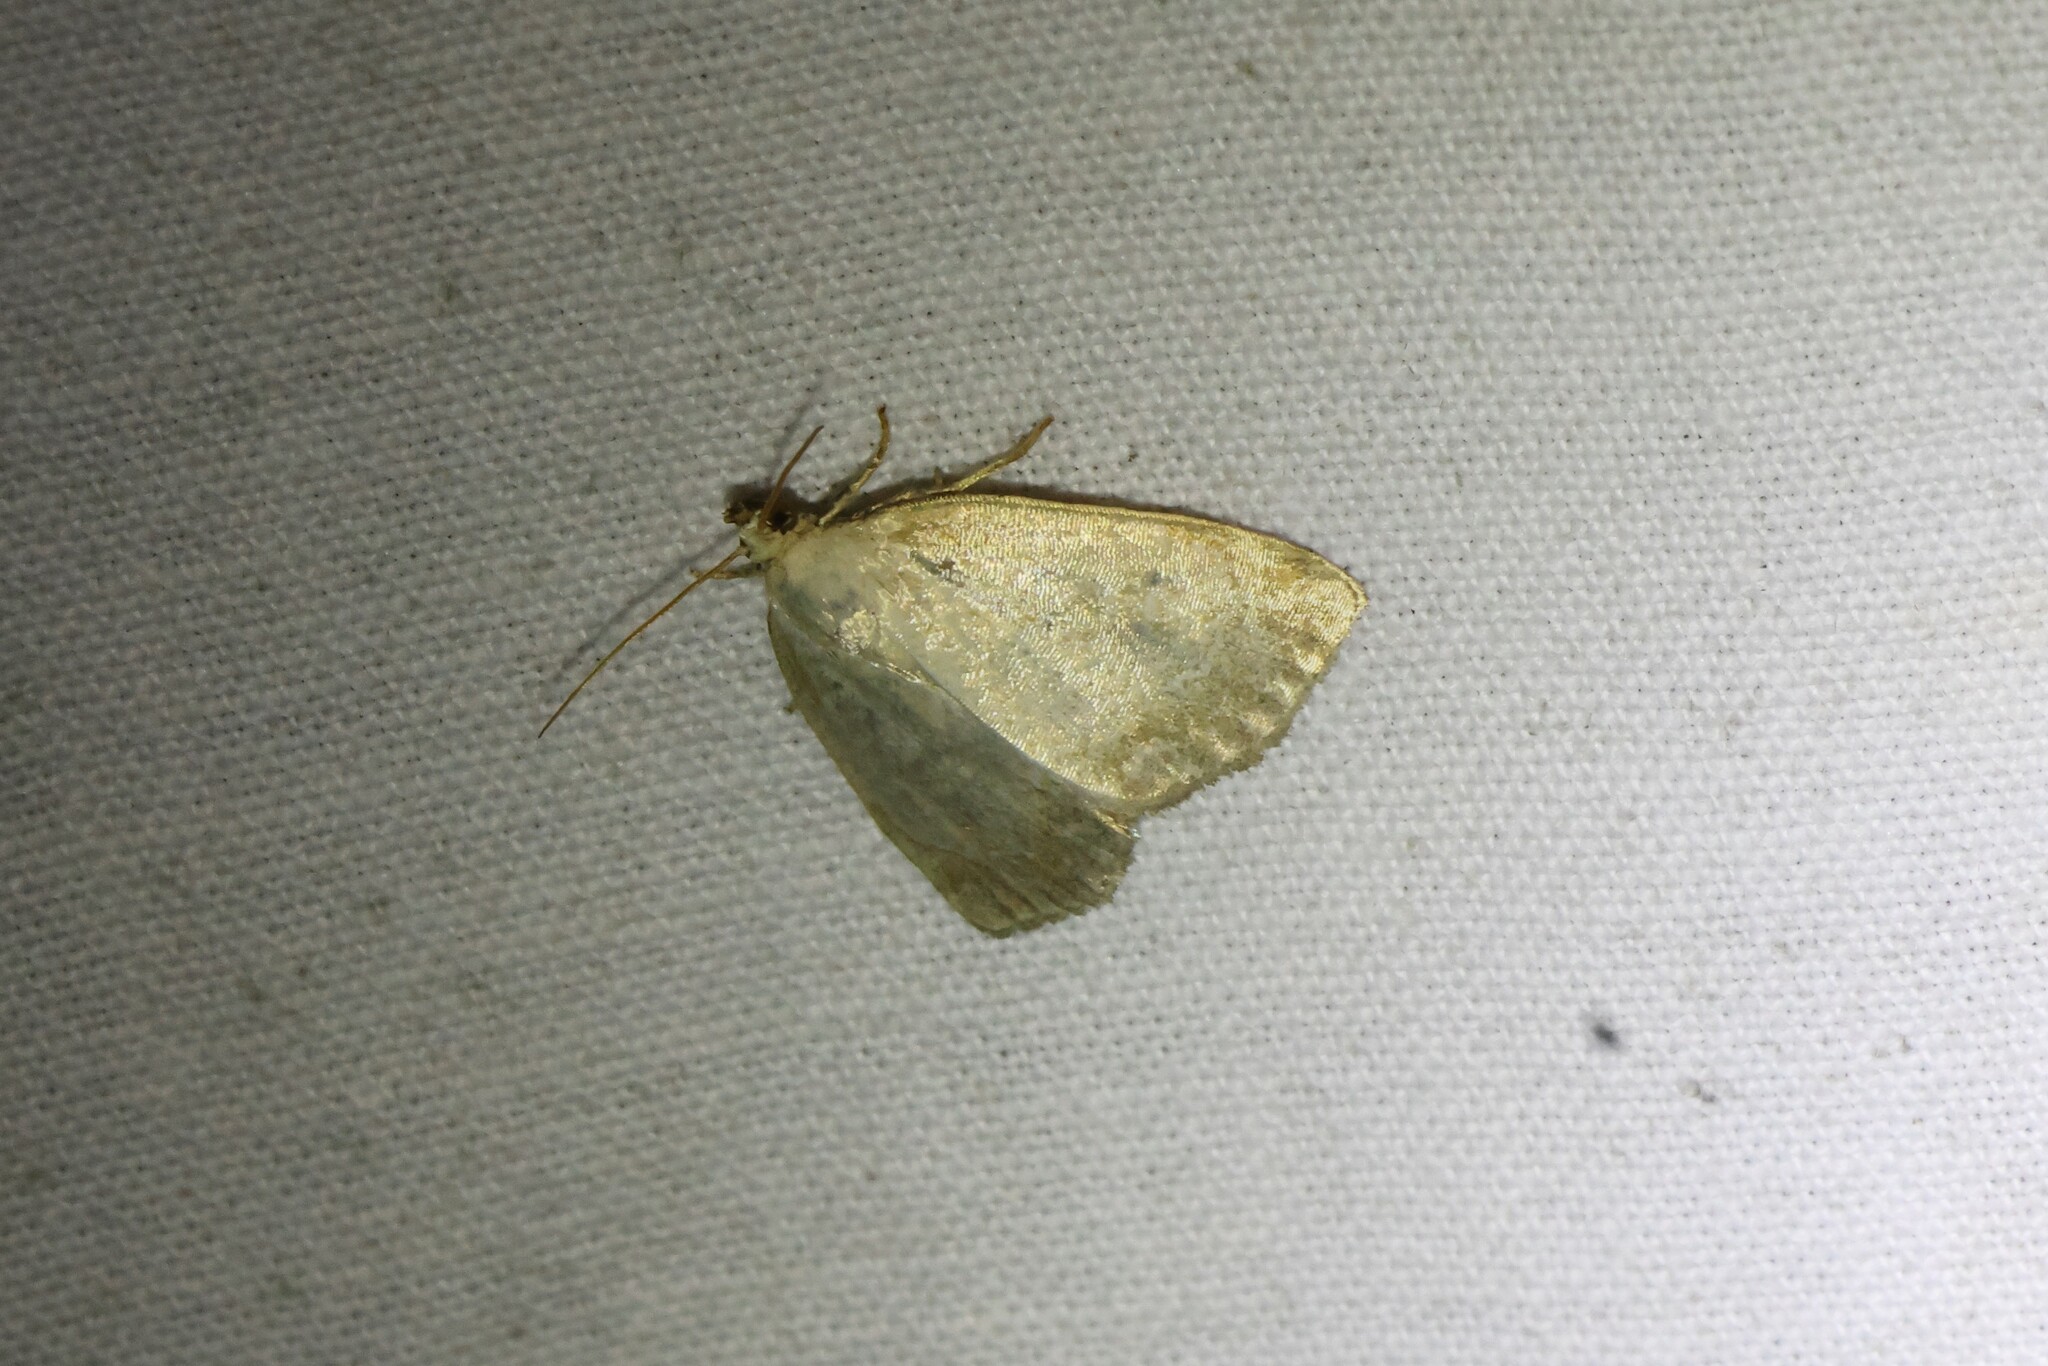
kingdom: Animalia
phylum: Arthropoda
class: Insecta
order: Lepidoptera
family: Noctuidae
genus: Protodeltote
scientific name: Protodeltote albidula
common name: Pale glyph
